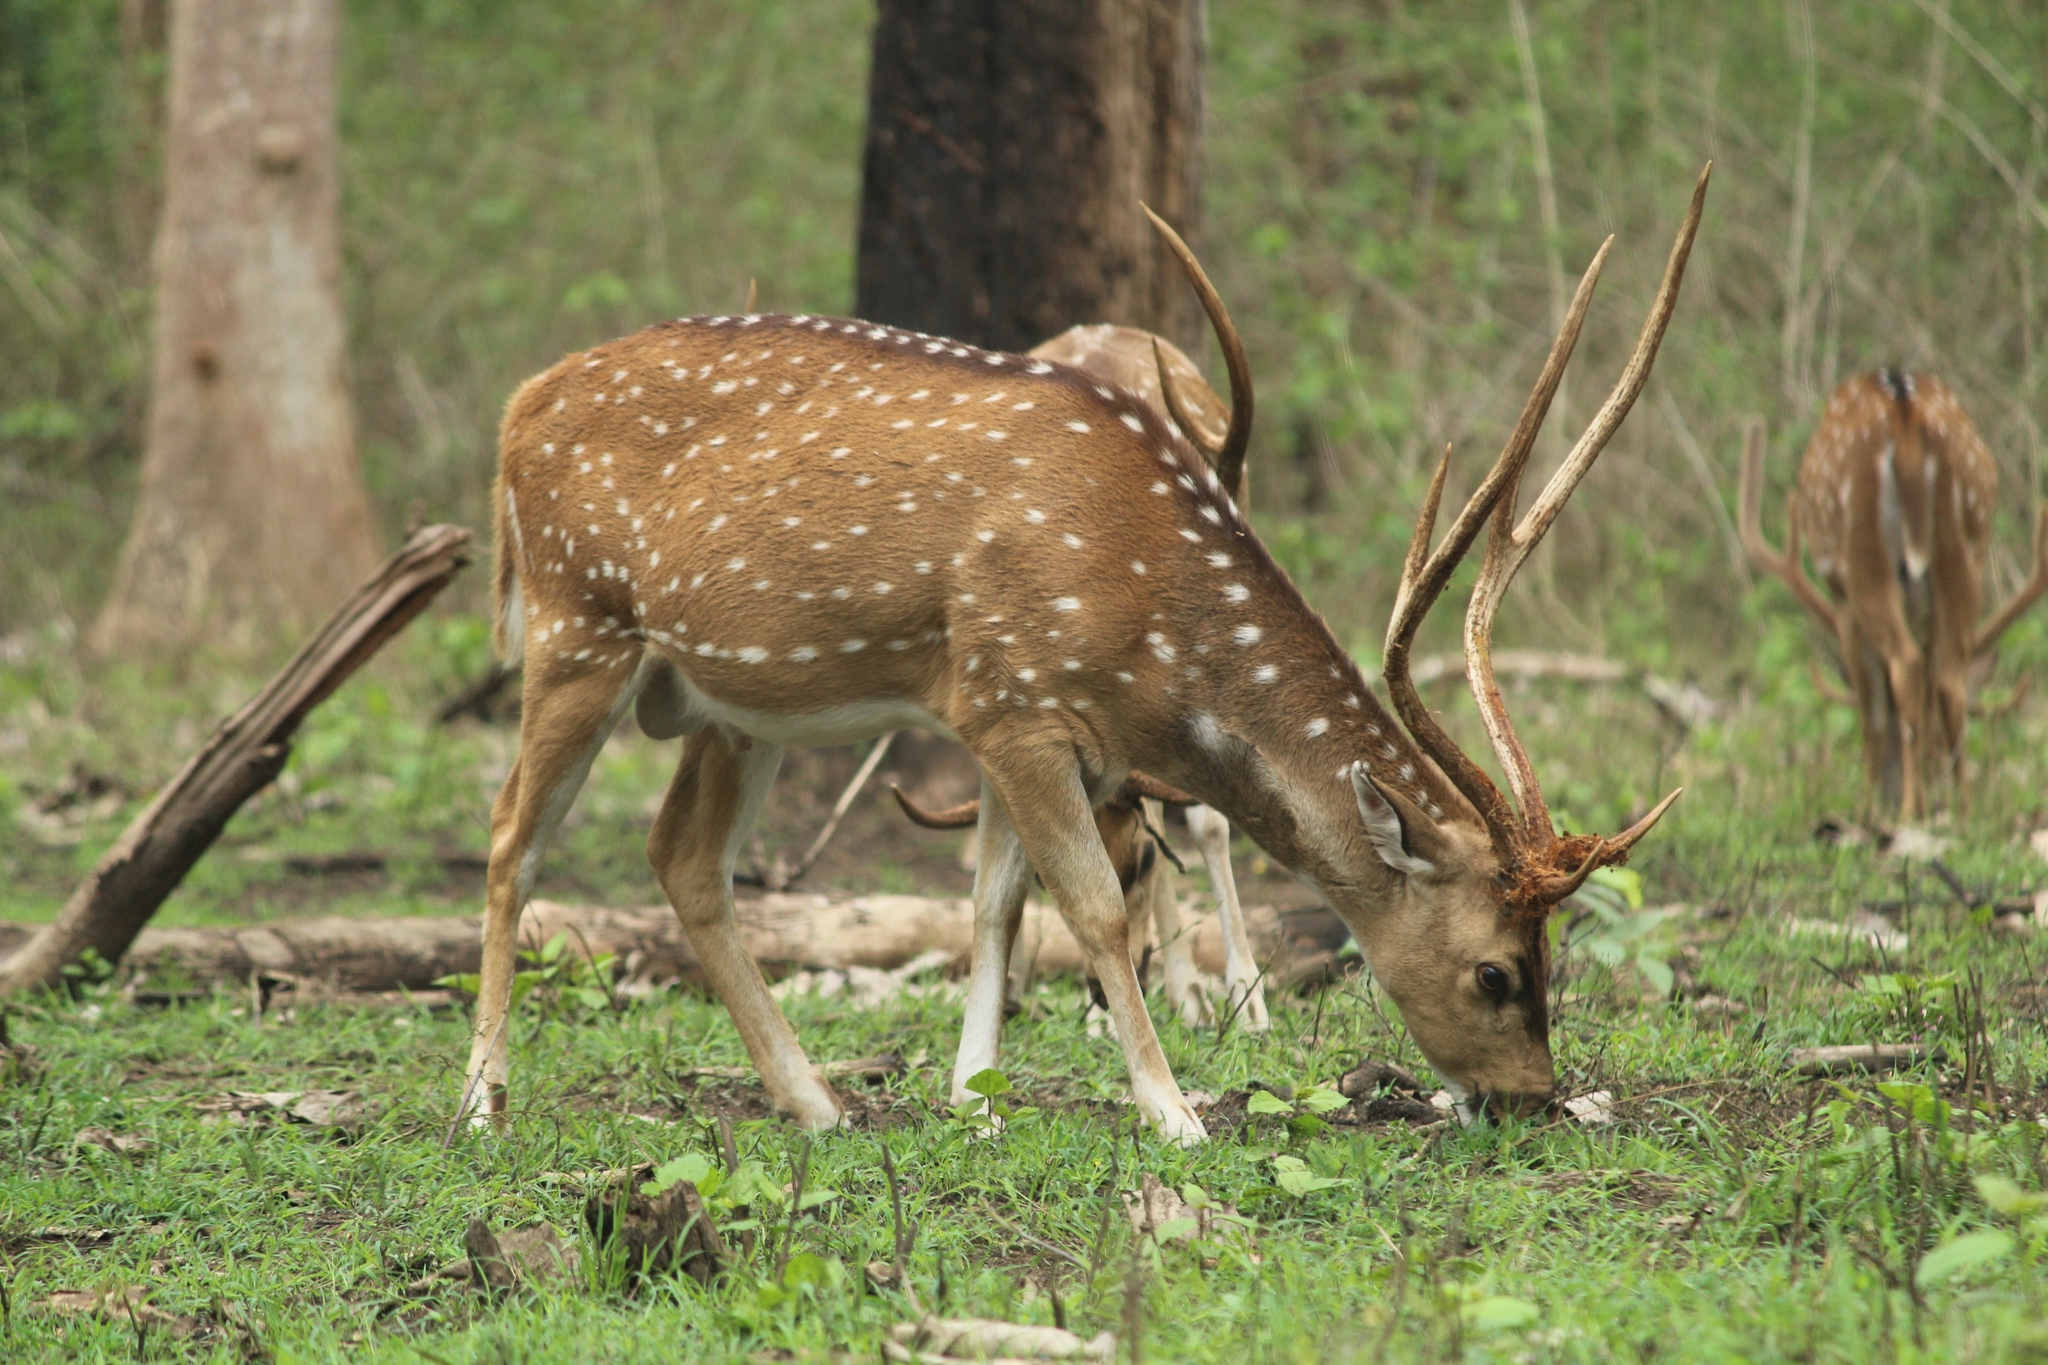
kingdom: Animalia
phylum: Chordata
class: Mammalia
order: Artiodactyla
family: Cervidae
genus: Axis
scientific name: Axis axis
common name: Chital
